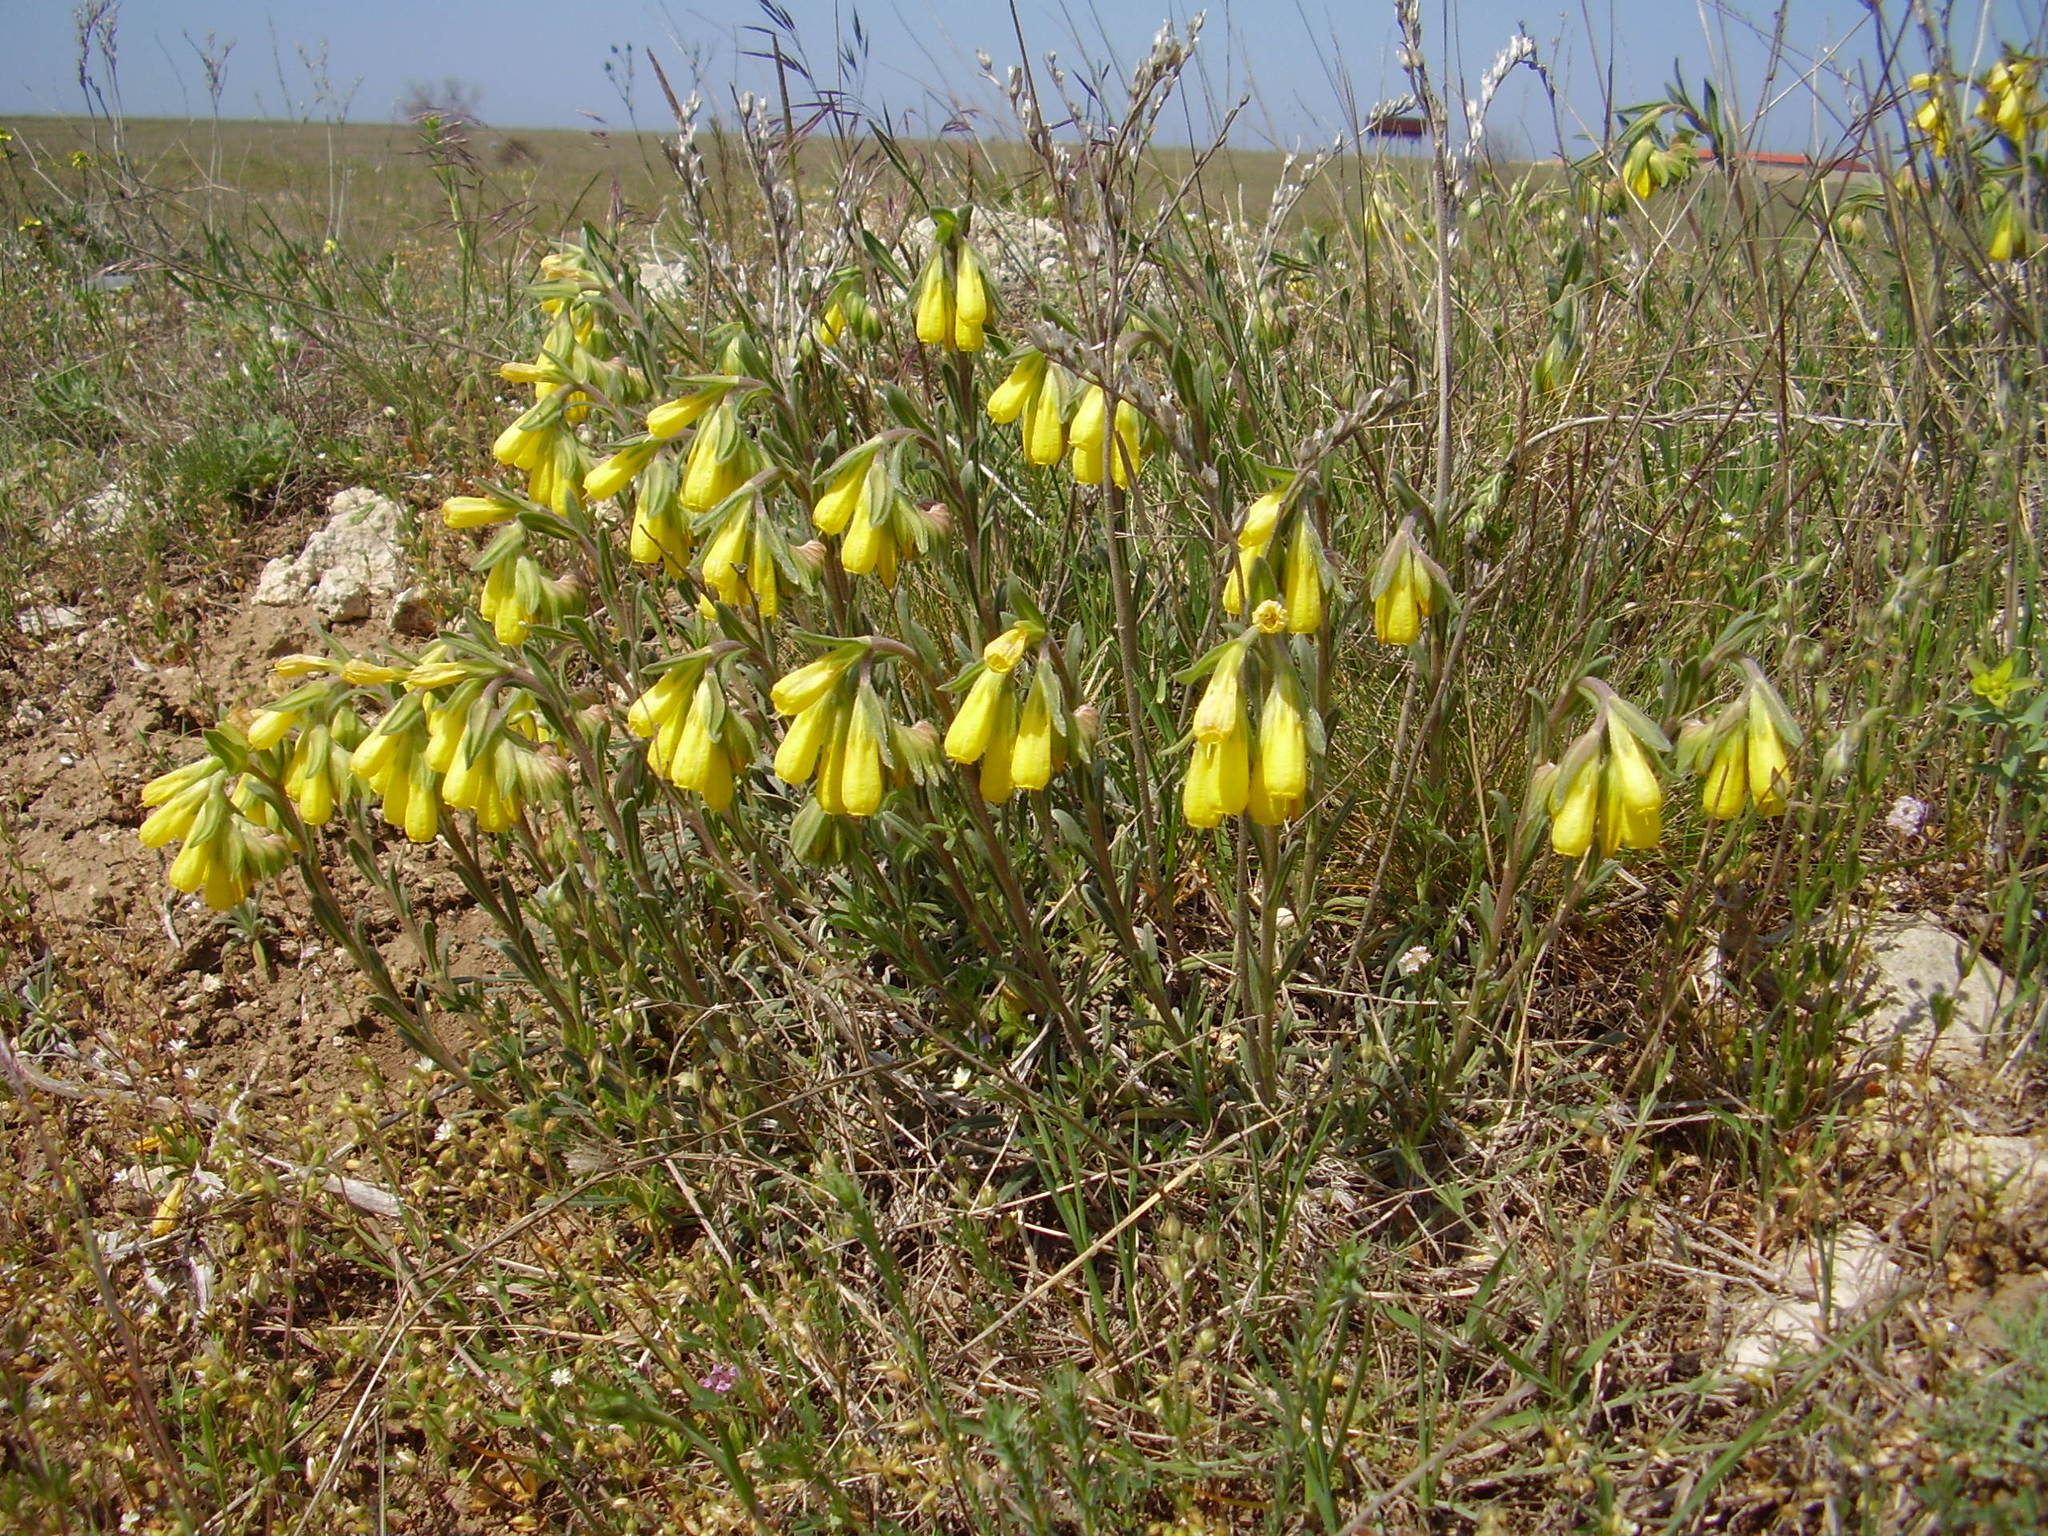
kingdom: Plantae
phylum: Tracheophyta
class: Magnoliopsida
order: Boraginales
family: Boraginaceae
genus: Onosma
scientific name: Onosma taurica
